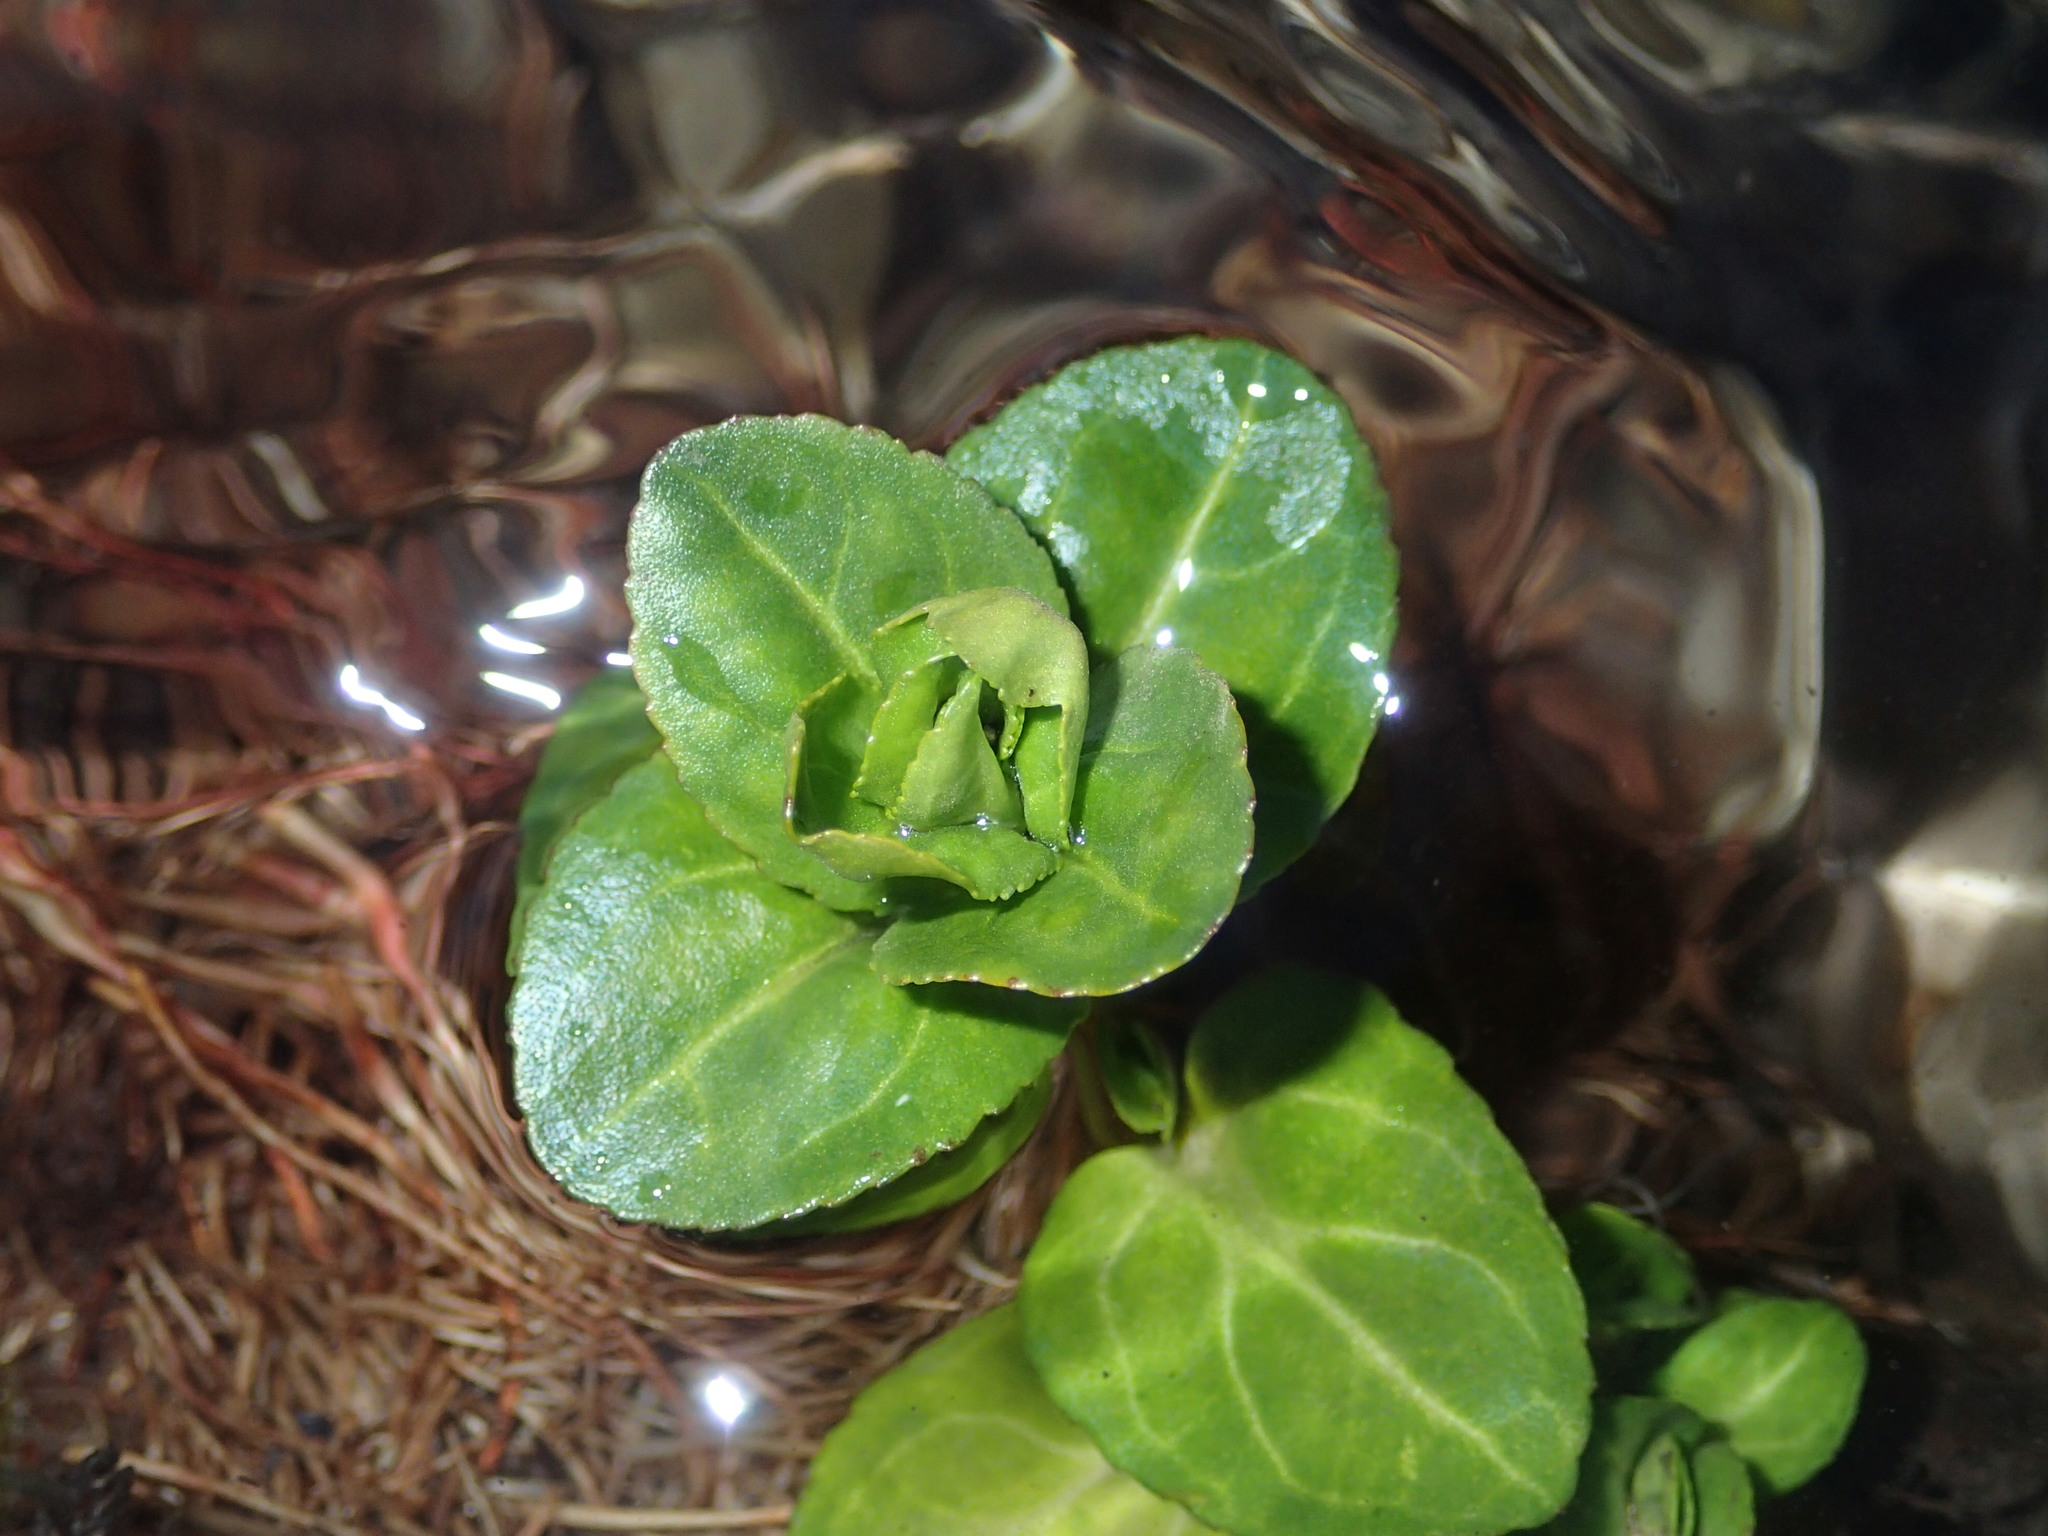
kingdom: Plantae
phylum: Tracheophyta
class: Magnoliopsida
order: Lamiales
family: Plantaginaceae
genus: Veronica
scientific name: Veronica beccabunga
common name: Brooklime
